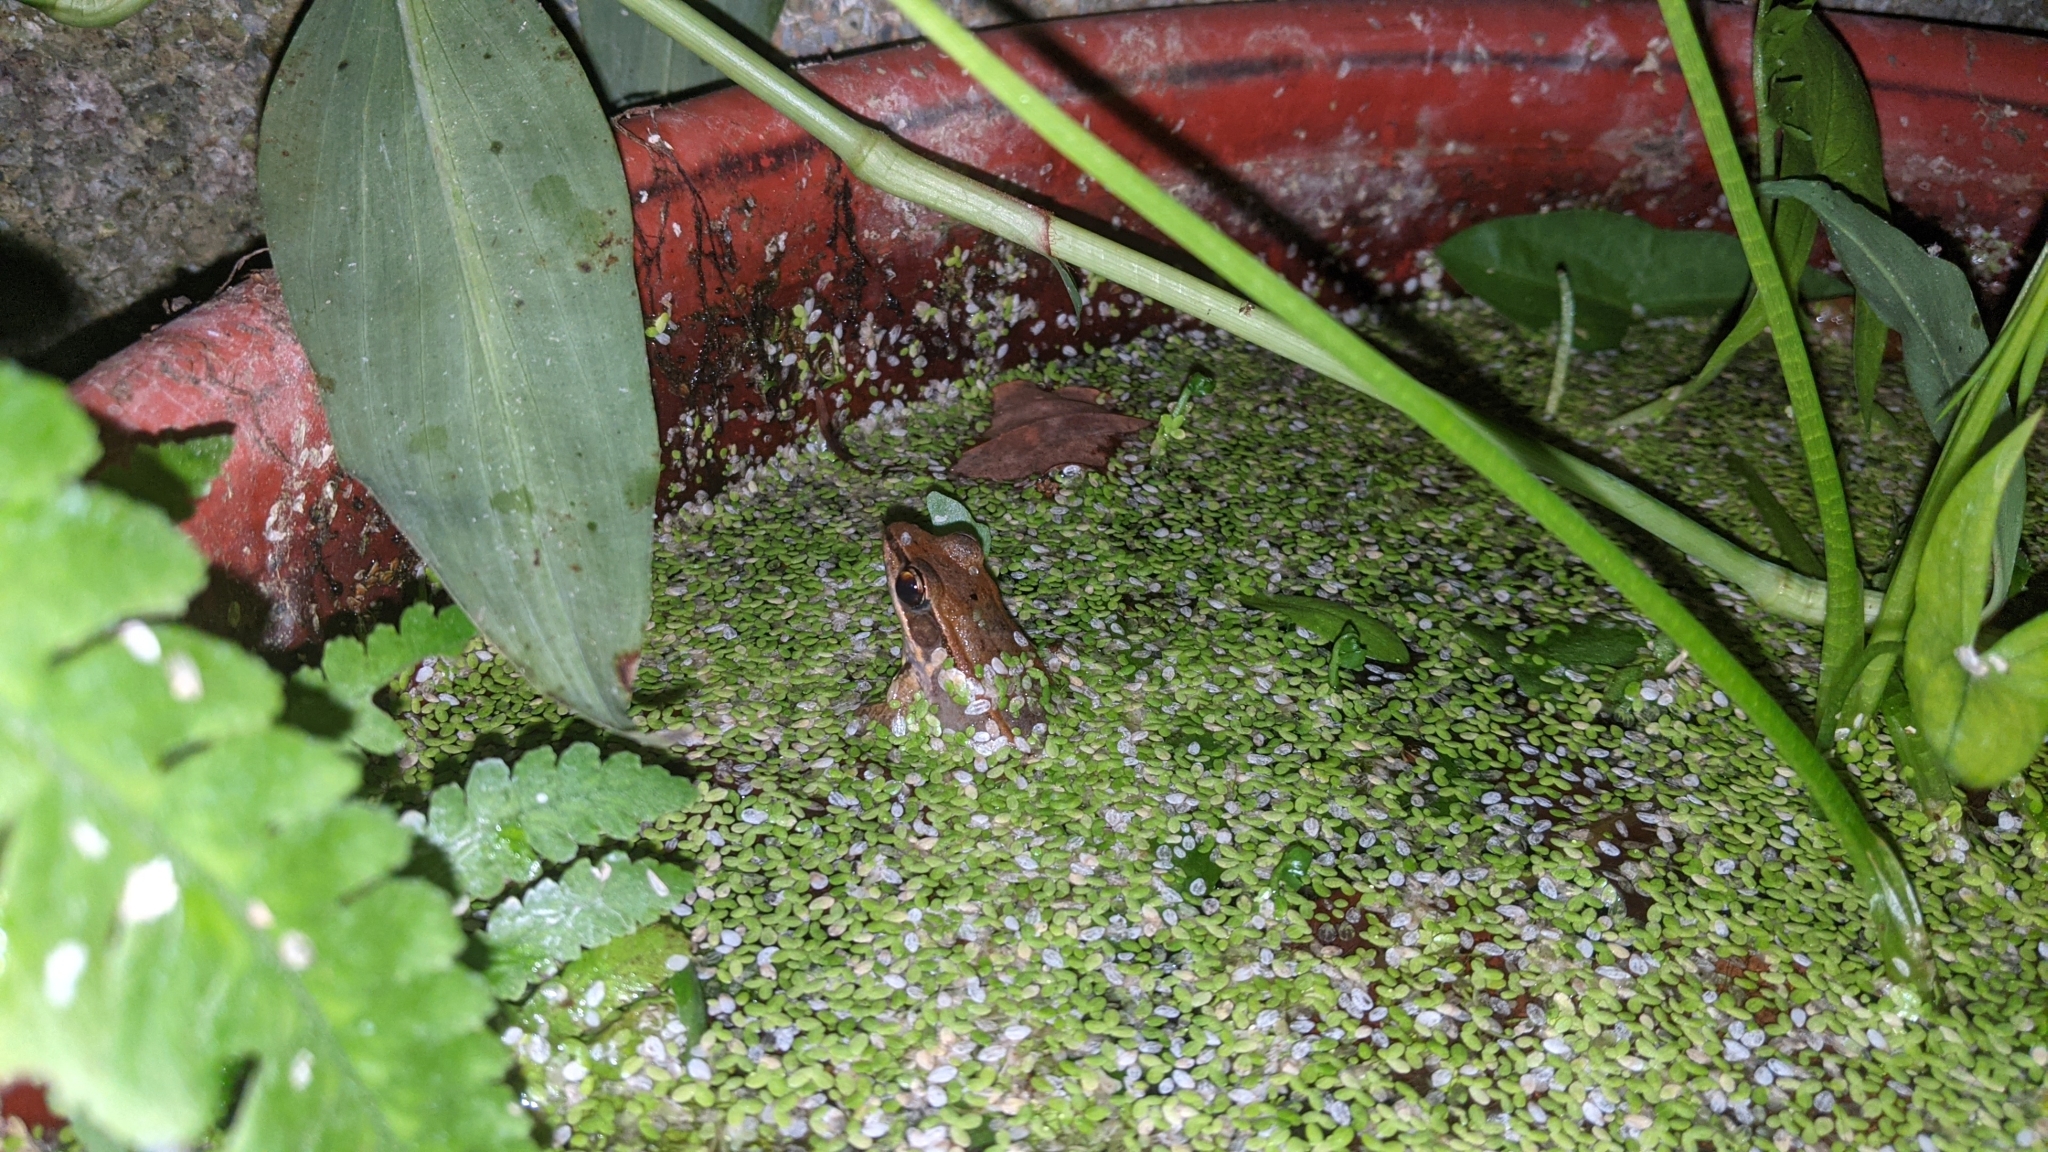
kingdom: Animalia
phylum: Chordata
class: Amphibia
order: Anura
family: Ranidae
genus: Hylarana
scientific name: Hylarana latouchii
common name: Broad-folded frog
